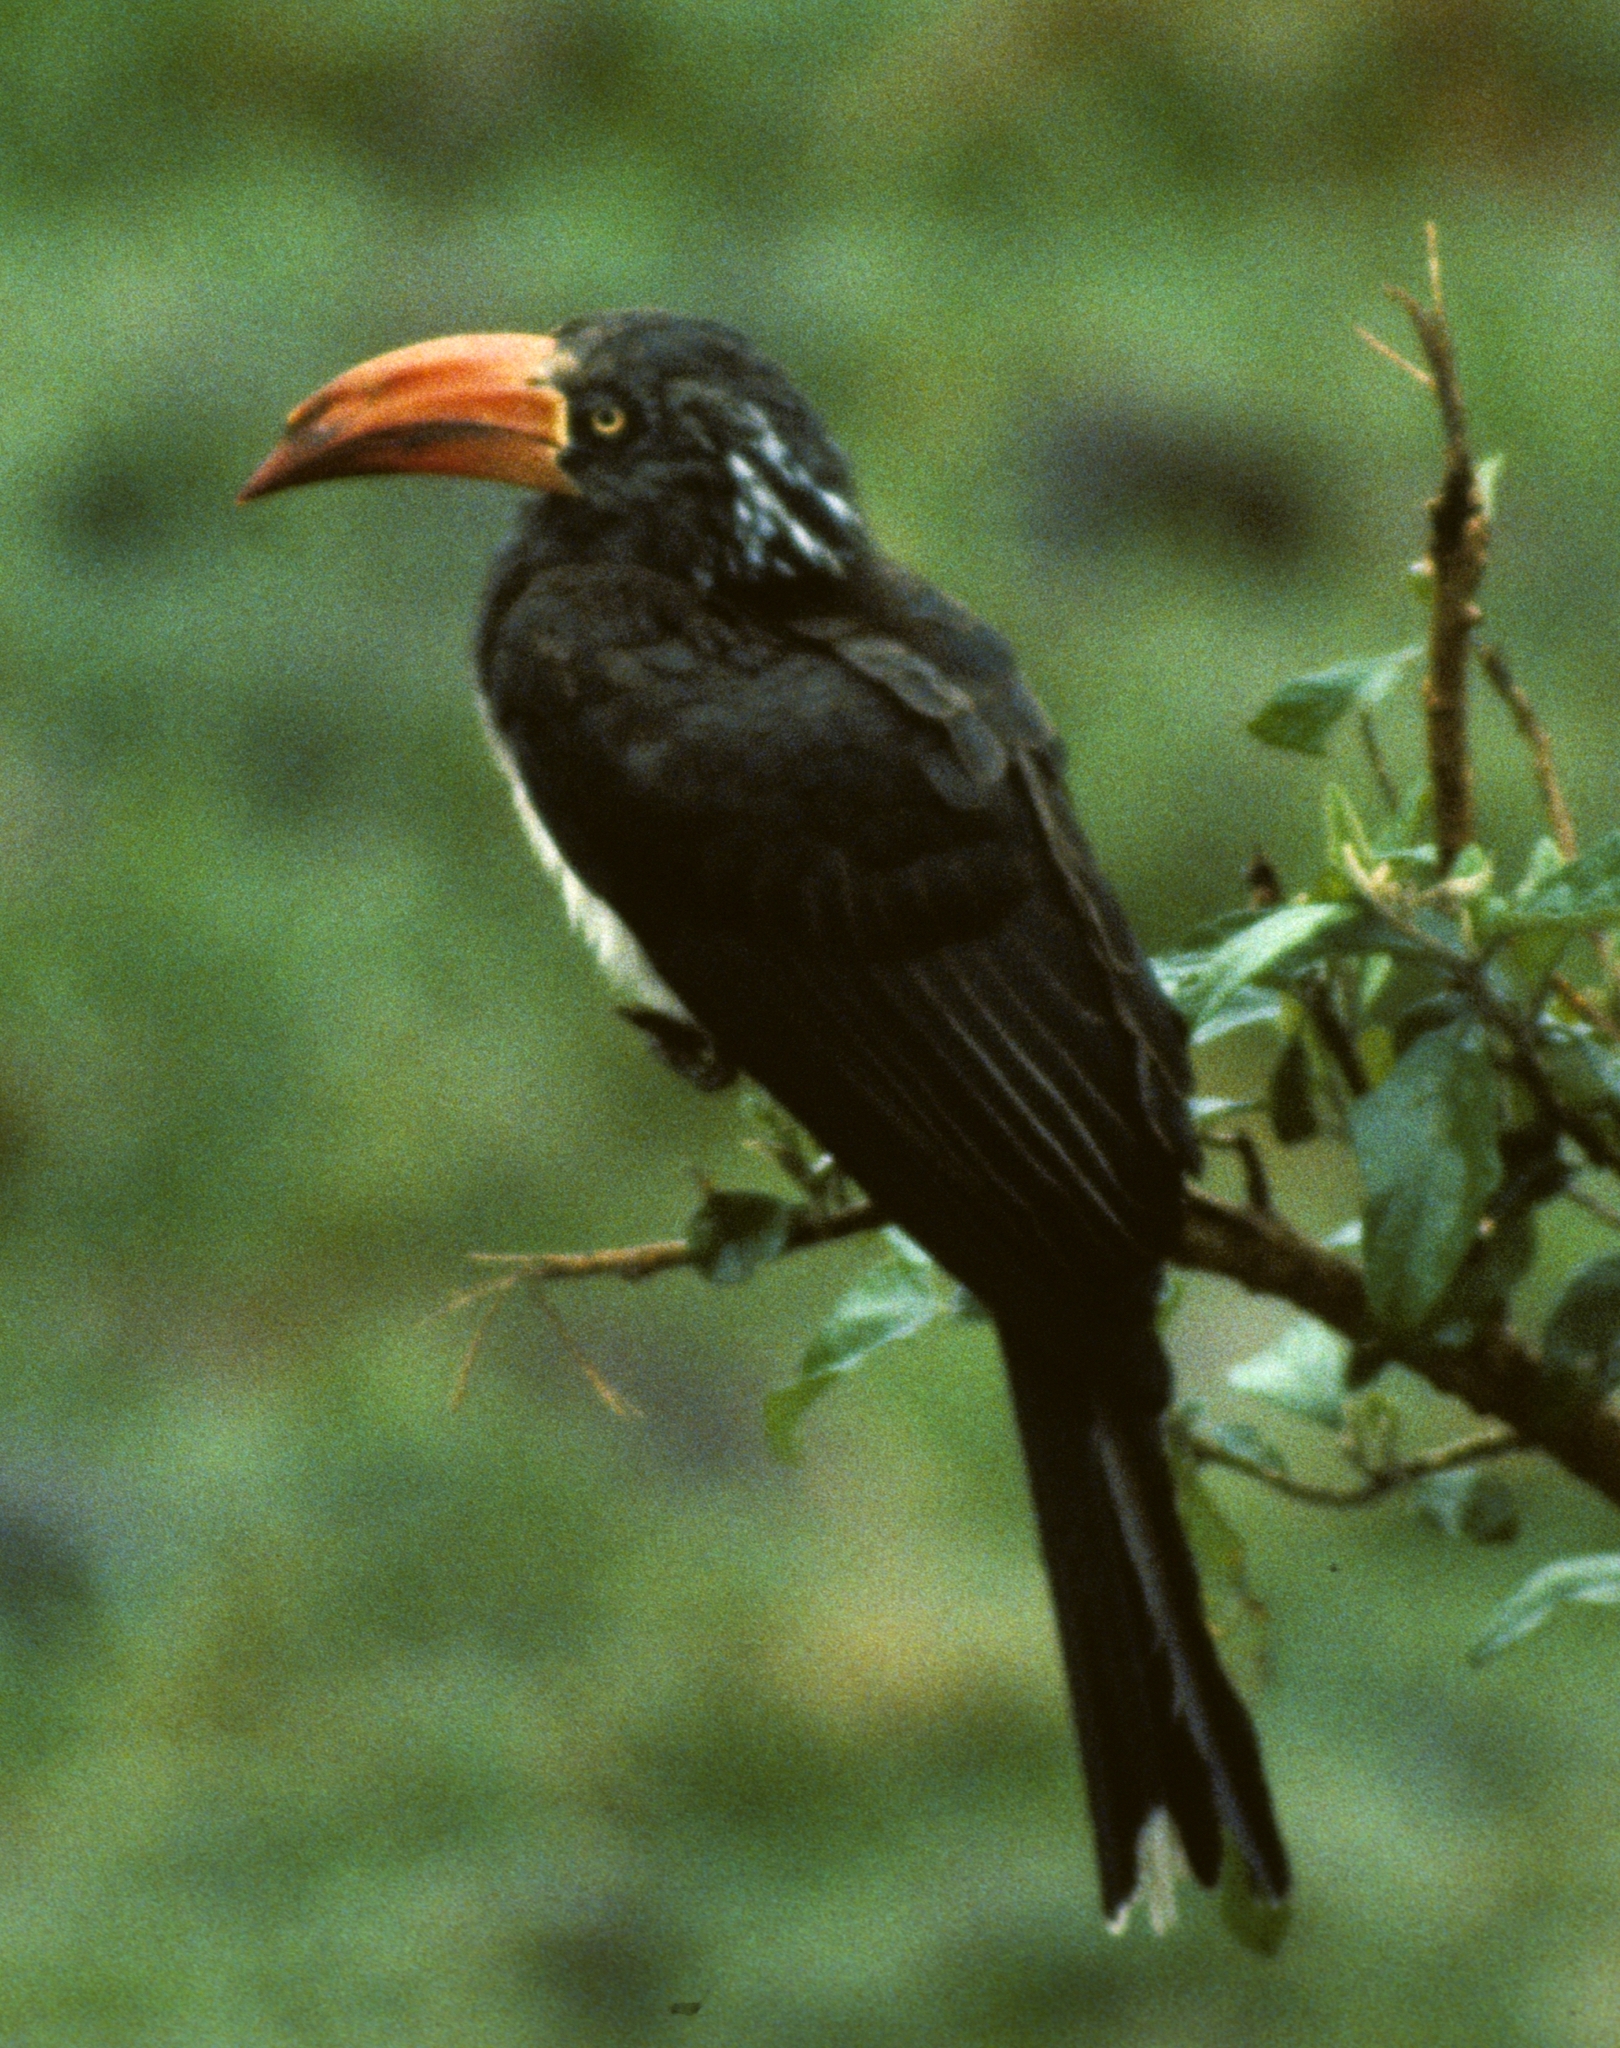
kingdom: Animalia
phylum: Chordata
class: Aves
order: Bucerotiformes
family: Bucerotidae
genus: Lophoceros
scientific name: Lophoceros alboterminatus
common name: Crowned hornbill
